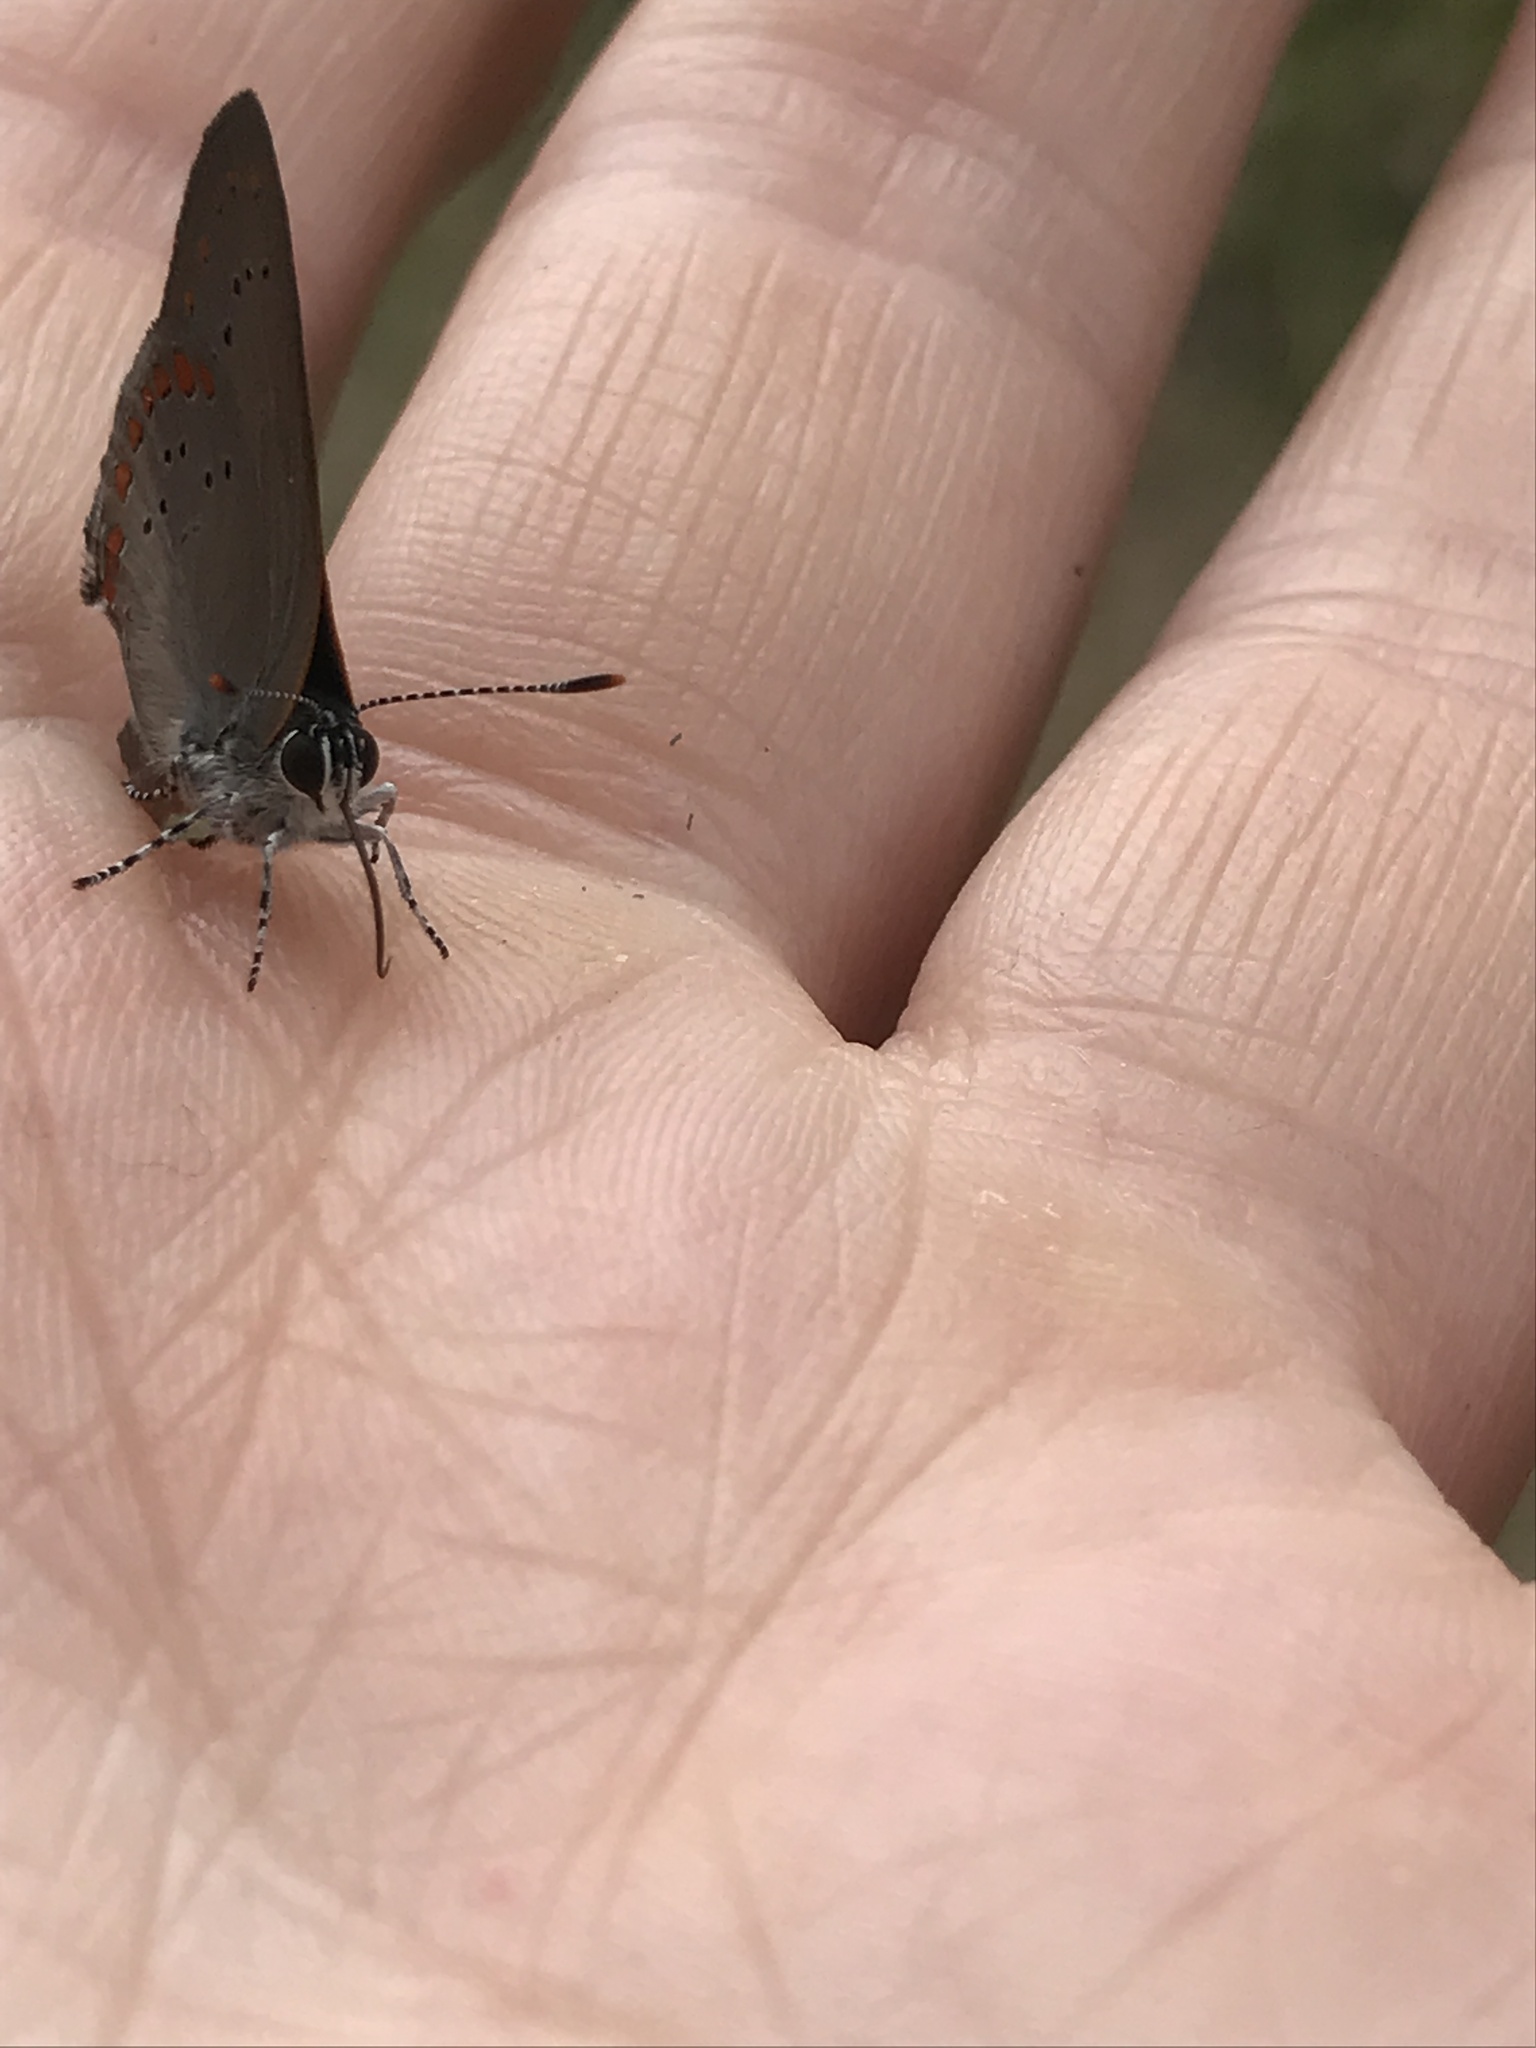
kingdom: Animalia
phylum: Arthropoda
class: Insecta
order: Lepidoptera
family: Lycaenidae
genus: Harkenclenus
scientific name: Harkenclenus titus
